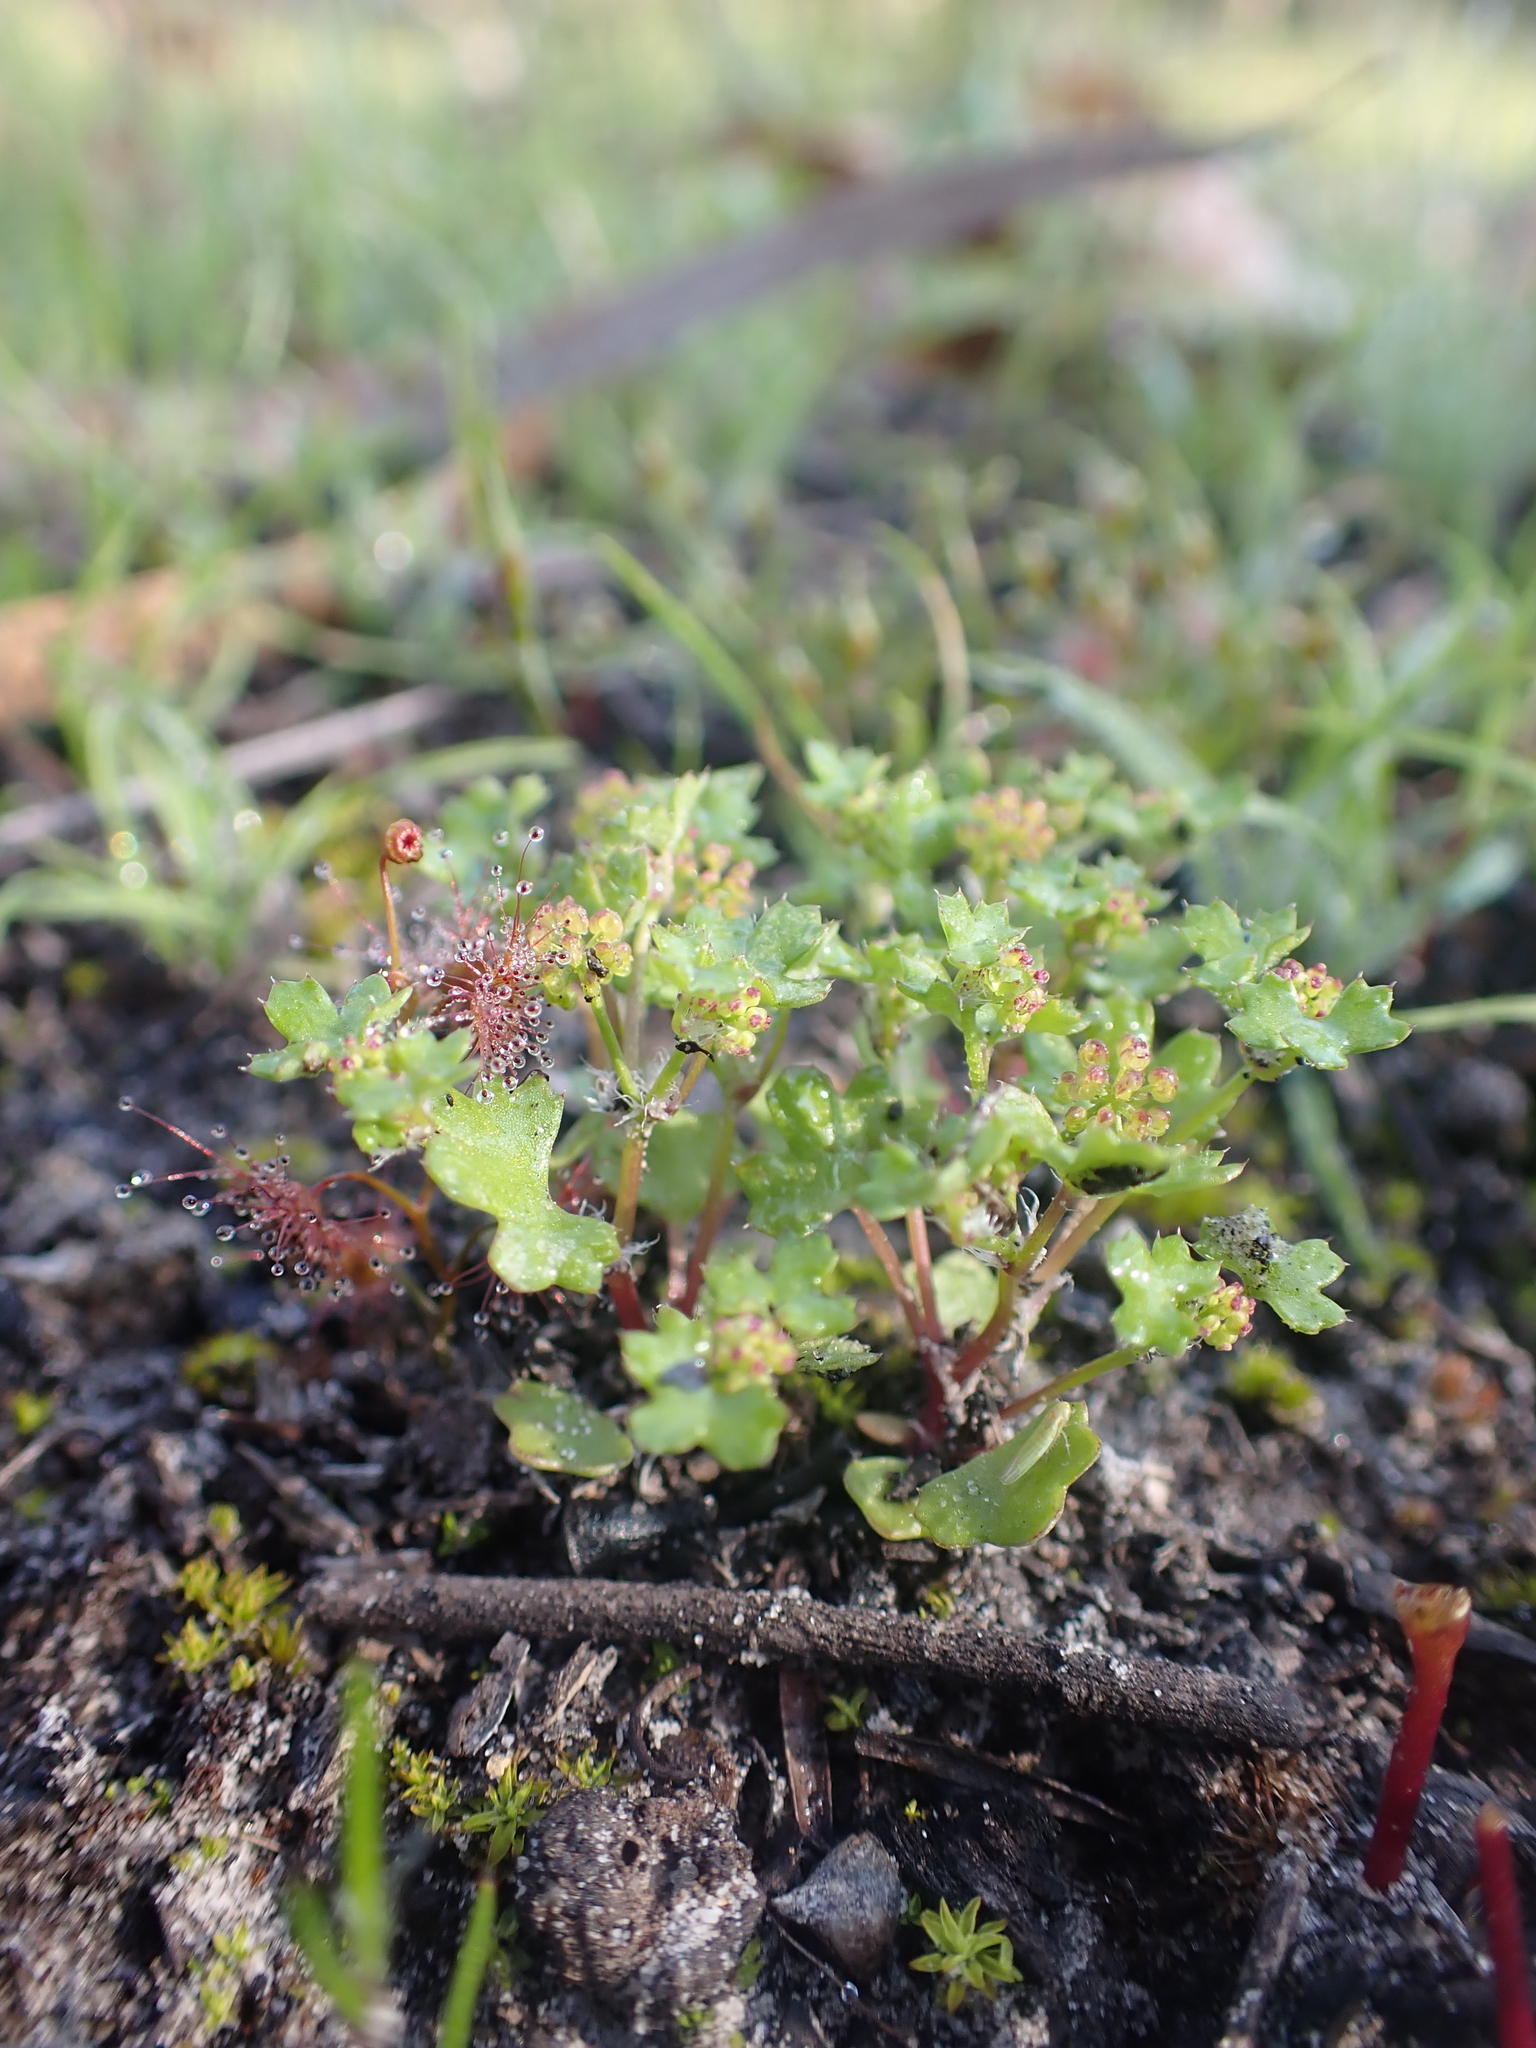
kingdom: Plantae
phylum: Tracheophyta
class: Magnoliopsida
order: Apiales
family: Araliaceae
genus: Hydrocotyle
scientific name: Hydrocotyle callicarpa
